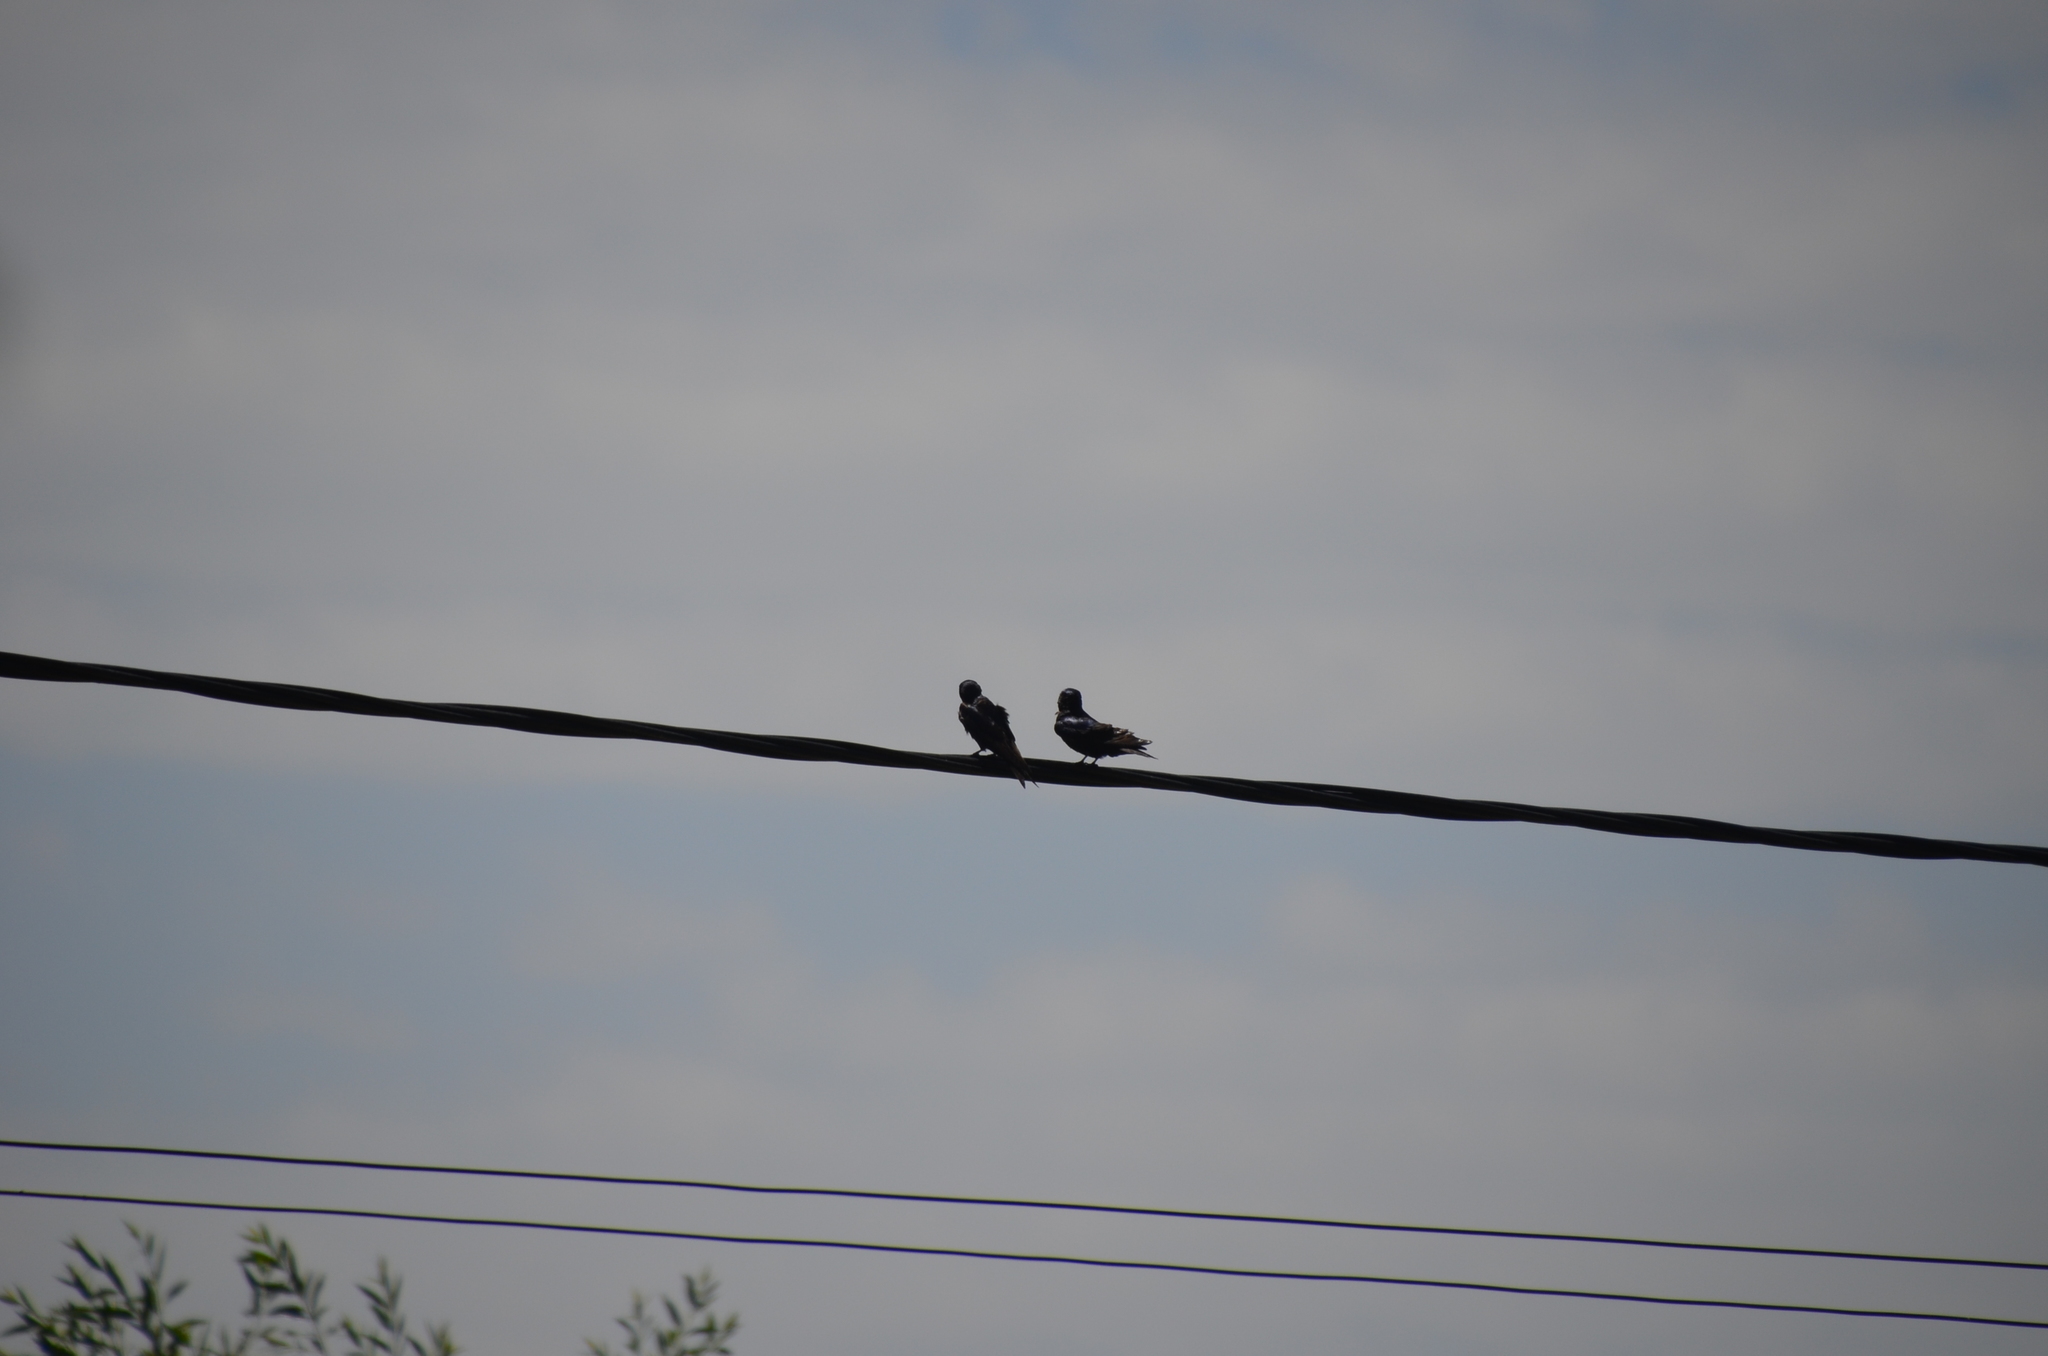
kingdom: Animalia
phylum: Chordata
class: Aves
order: Passeriformes
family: Hirundinidae
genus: Progne
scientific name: Progne elegans
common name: Southern martin
